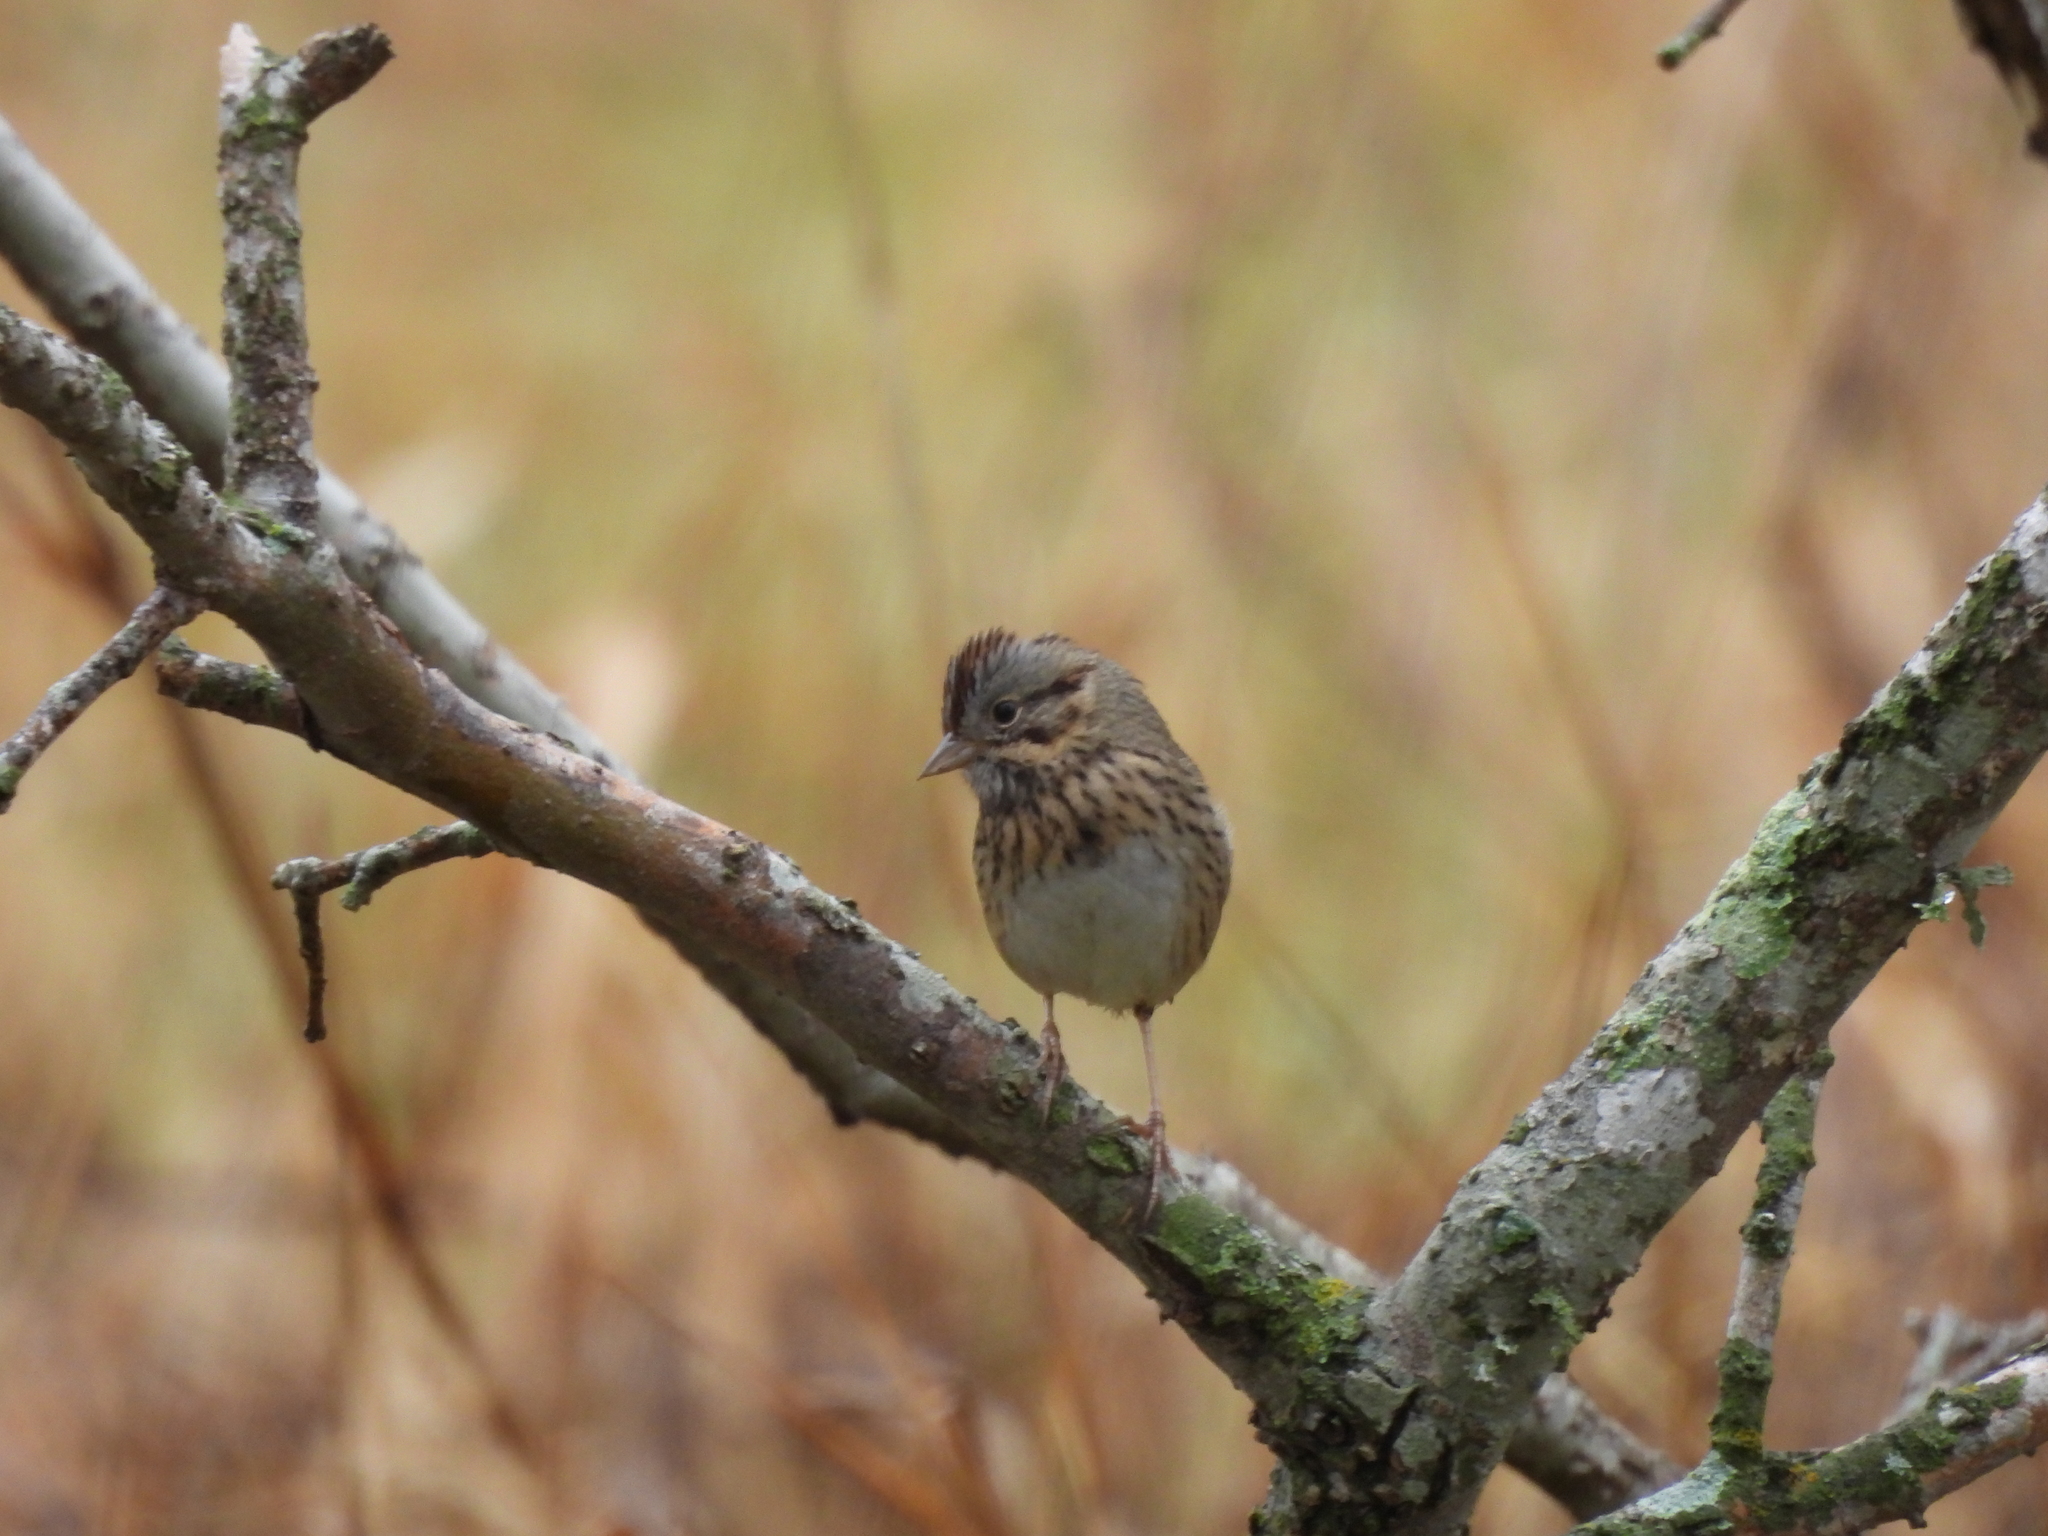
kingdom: Animalia
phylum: Chordata
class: Aves
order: Passeriformes
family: Passerellidae
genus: Melospiza
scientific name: Melospiza lincolnii
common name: Lincoln's sparrow
